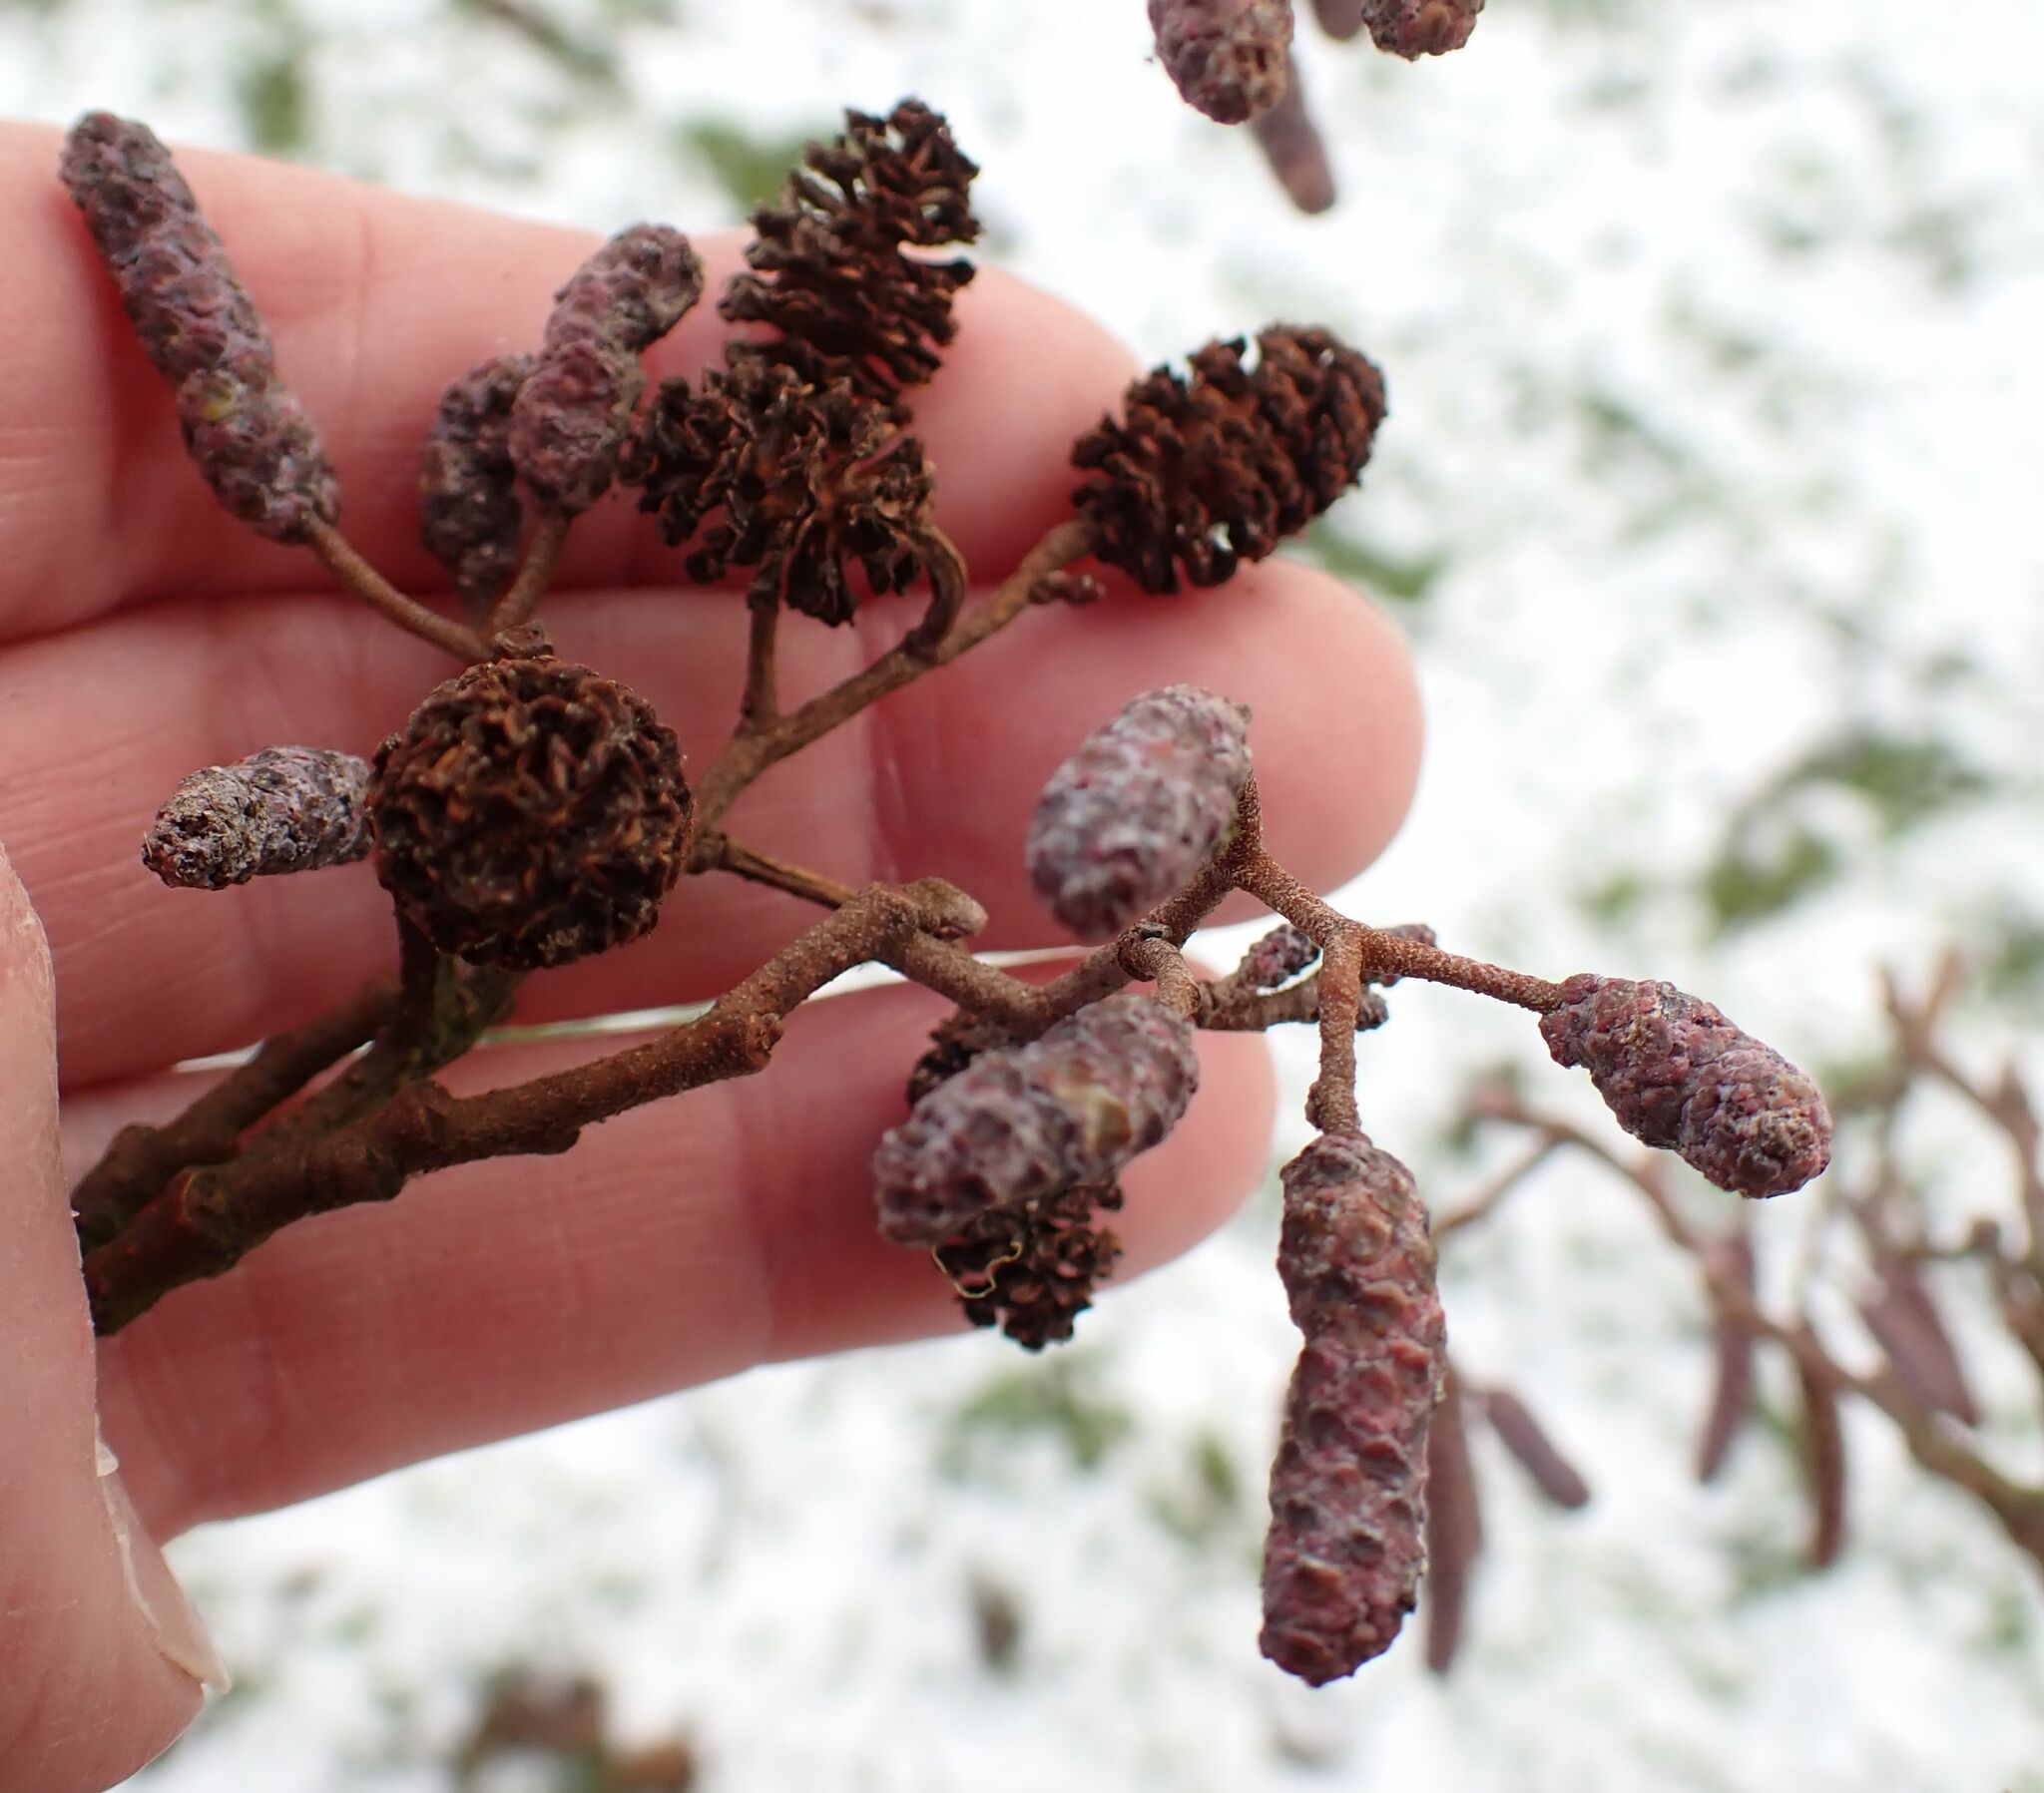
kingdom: Plantae
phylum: Tracheophyta
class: Magnoliopsida
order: Fagales
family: Betulaceae
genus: Alnus
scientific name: Alnus glutinosa
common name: Black alder
